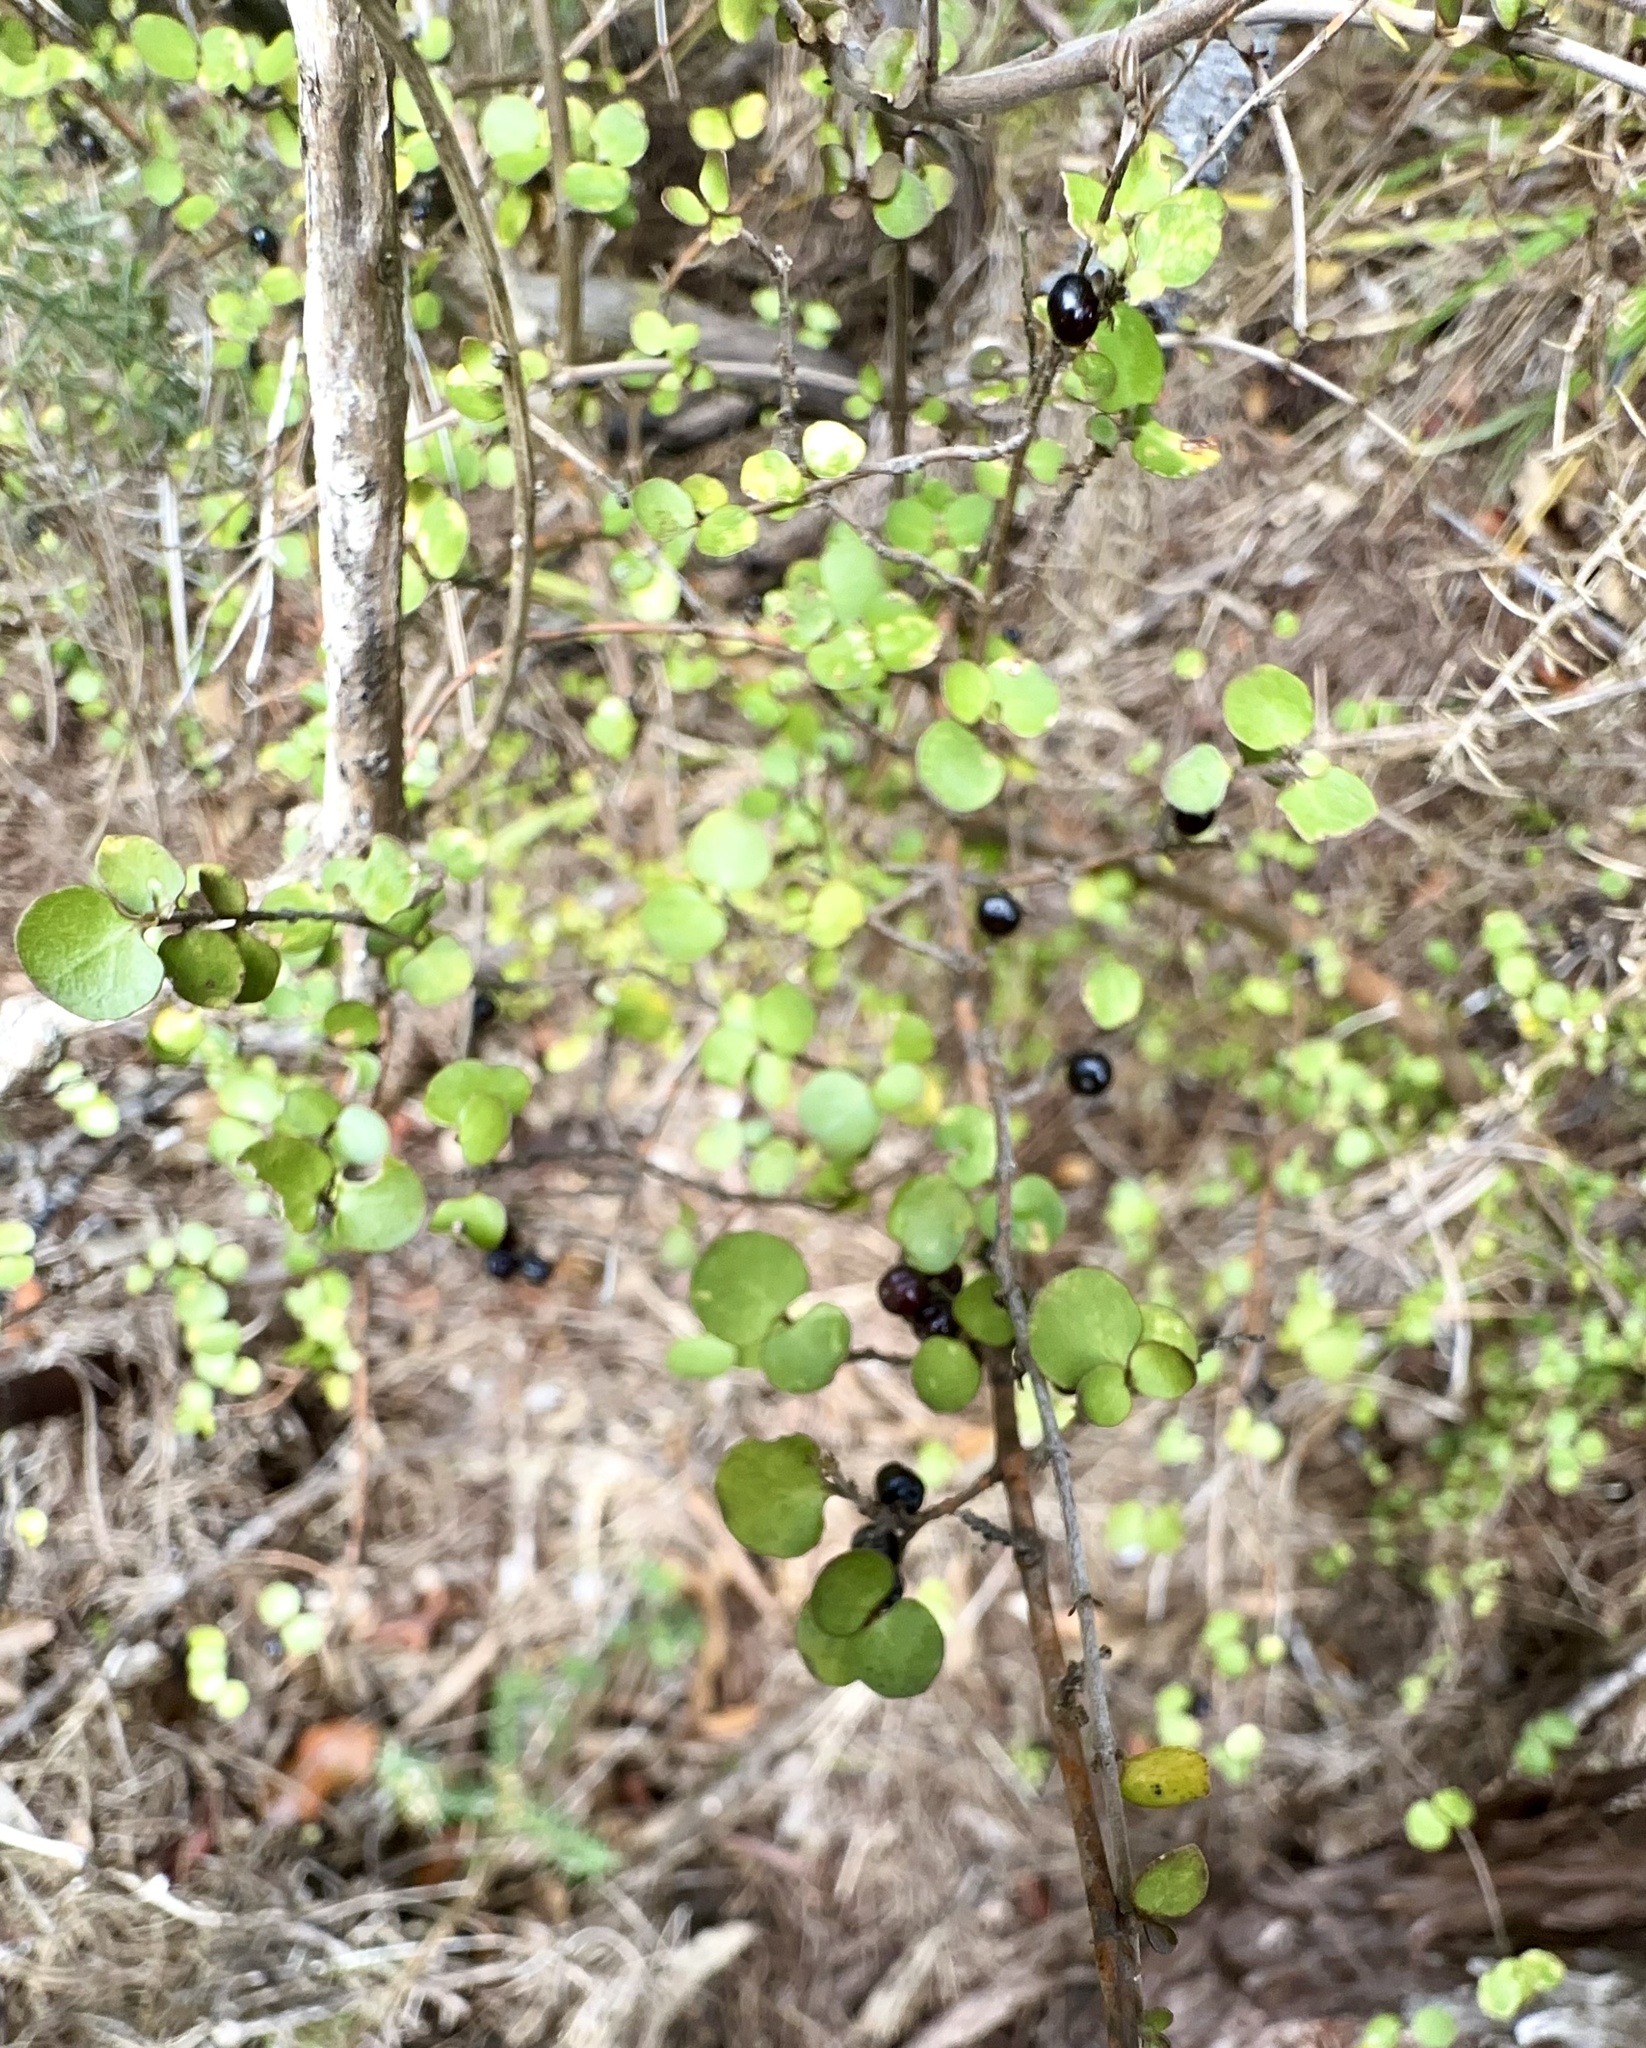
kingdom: Plantae
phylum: Tracheophyta
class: Magnoliopsida
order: Gentianales
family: Rubiaceae
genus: Coprosma
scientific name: Coprosma rhamnoides
